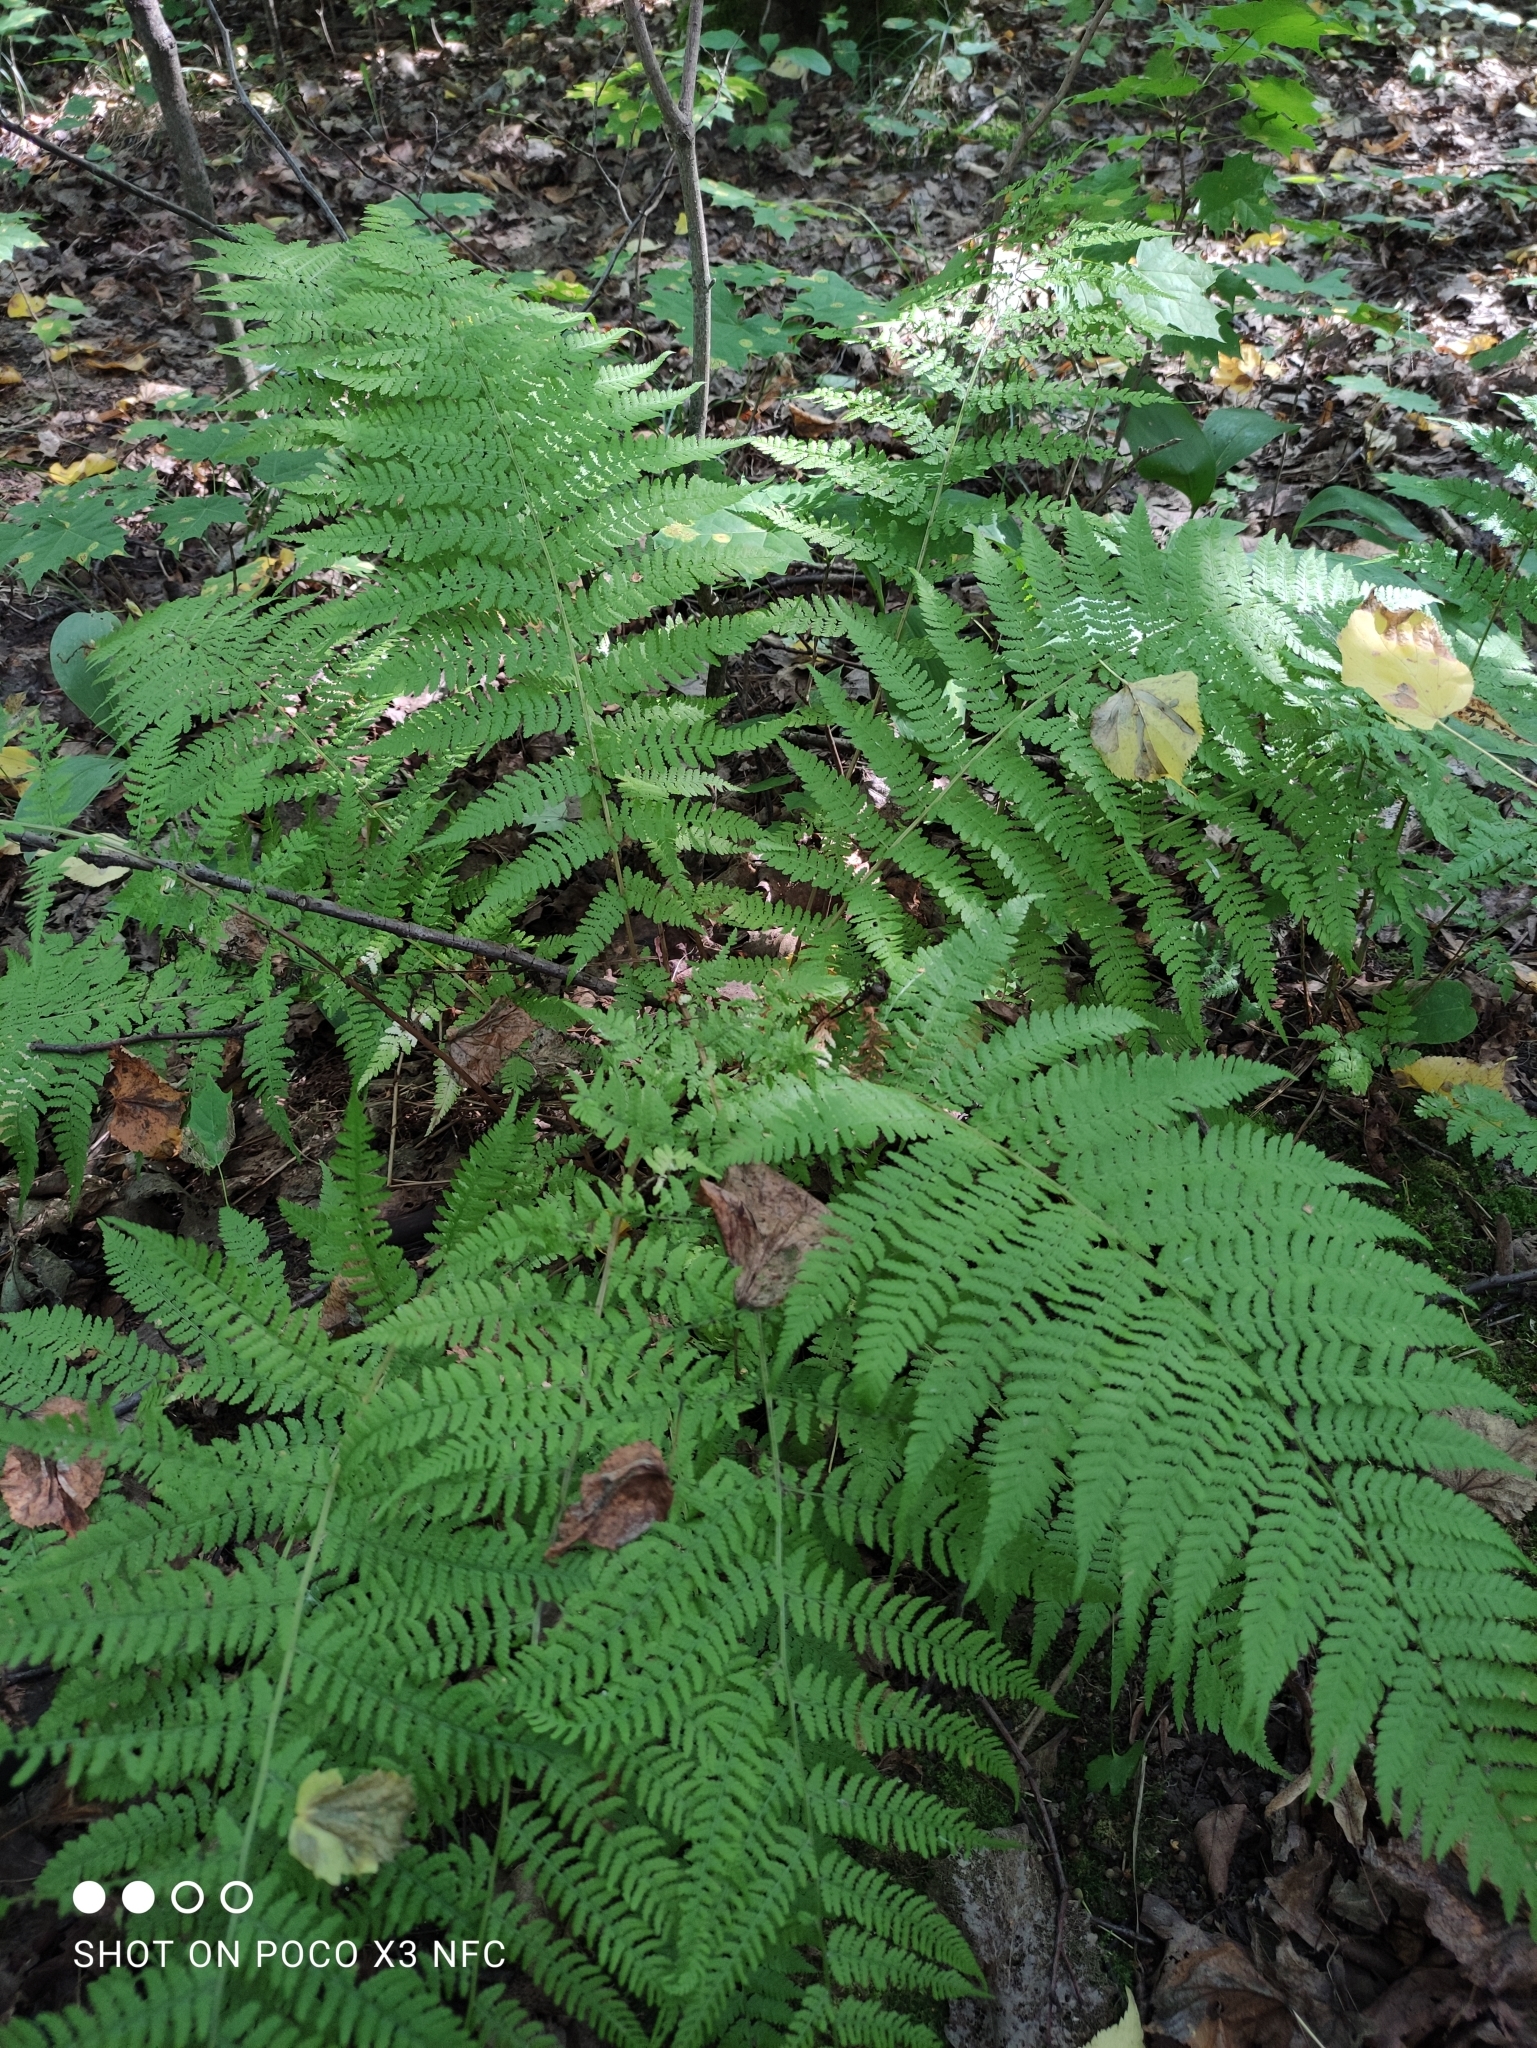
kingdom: Plantae
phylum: Tracheophyta
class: Polypodiopsida
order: Polypodiales
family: Athyriaceae
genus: Athyrium
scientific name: Athyrium filix-femina
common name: Lady fern
